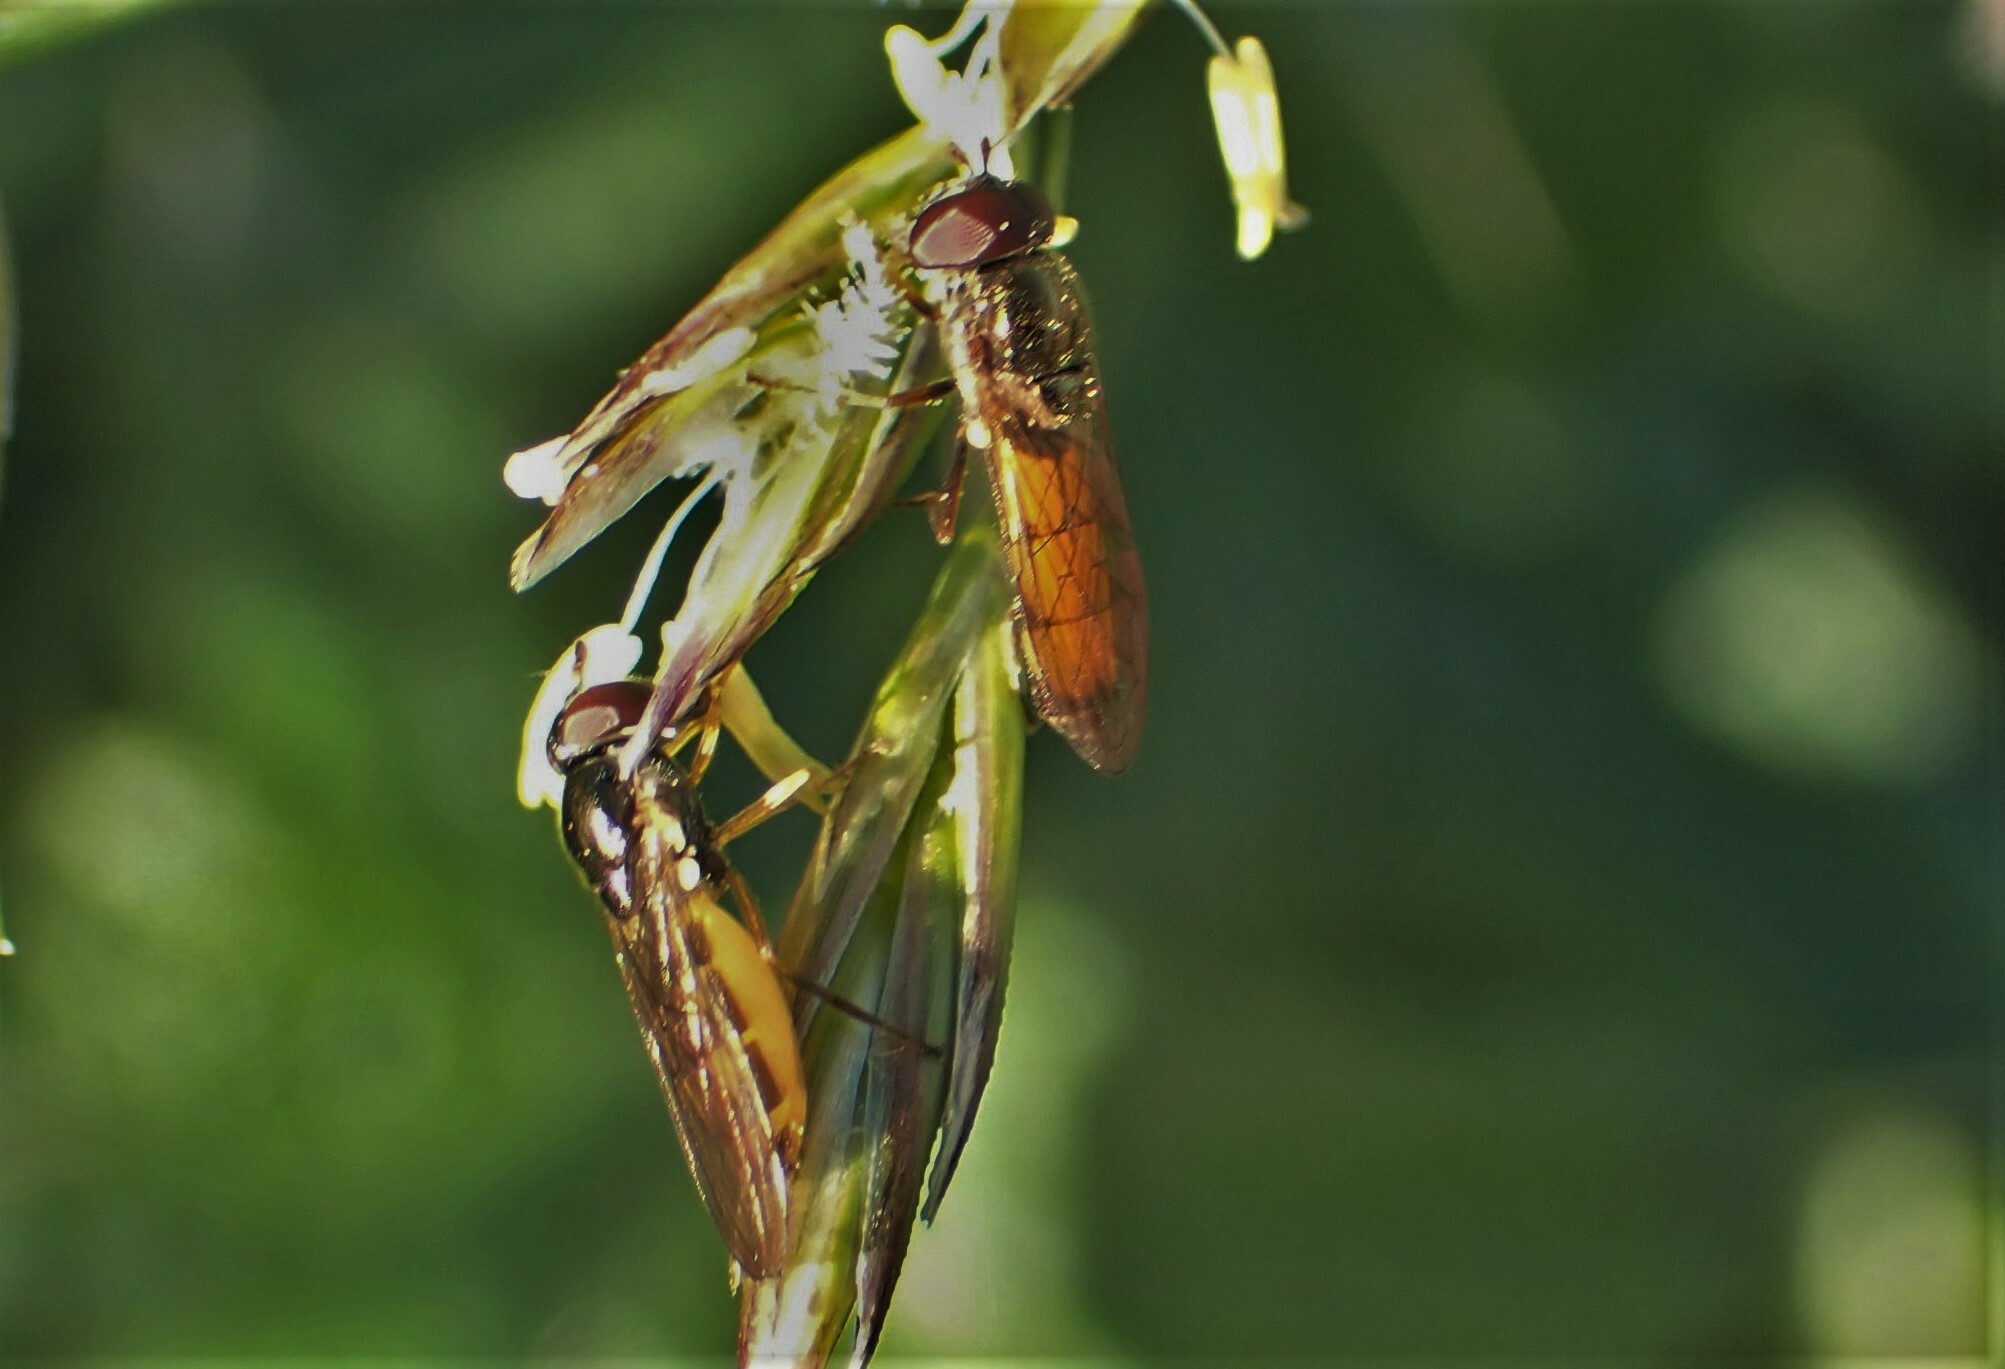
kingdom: Animalia
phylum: Arthropoda
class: Insecta
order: Diptera
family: Syrphidae
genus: Melanostoma
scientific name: Melanostoma fasciatum
